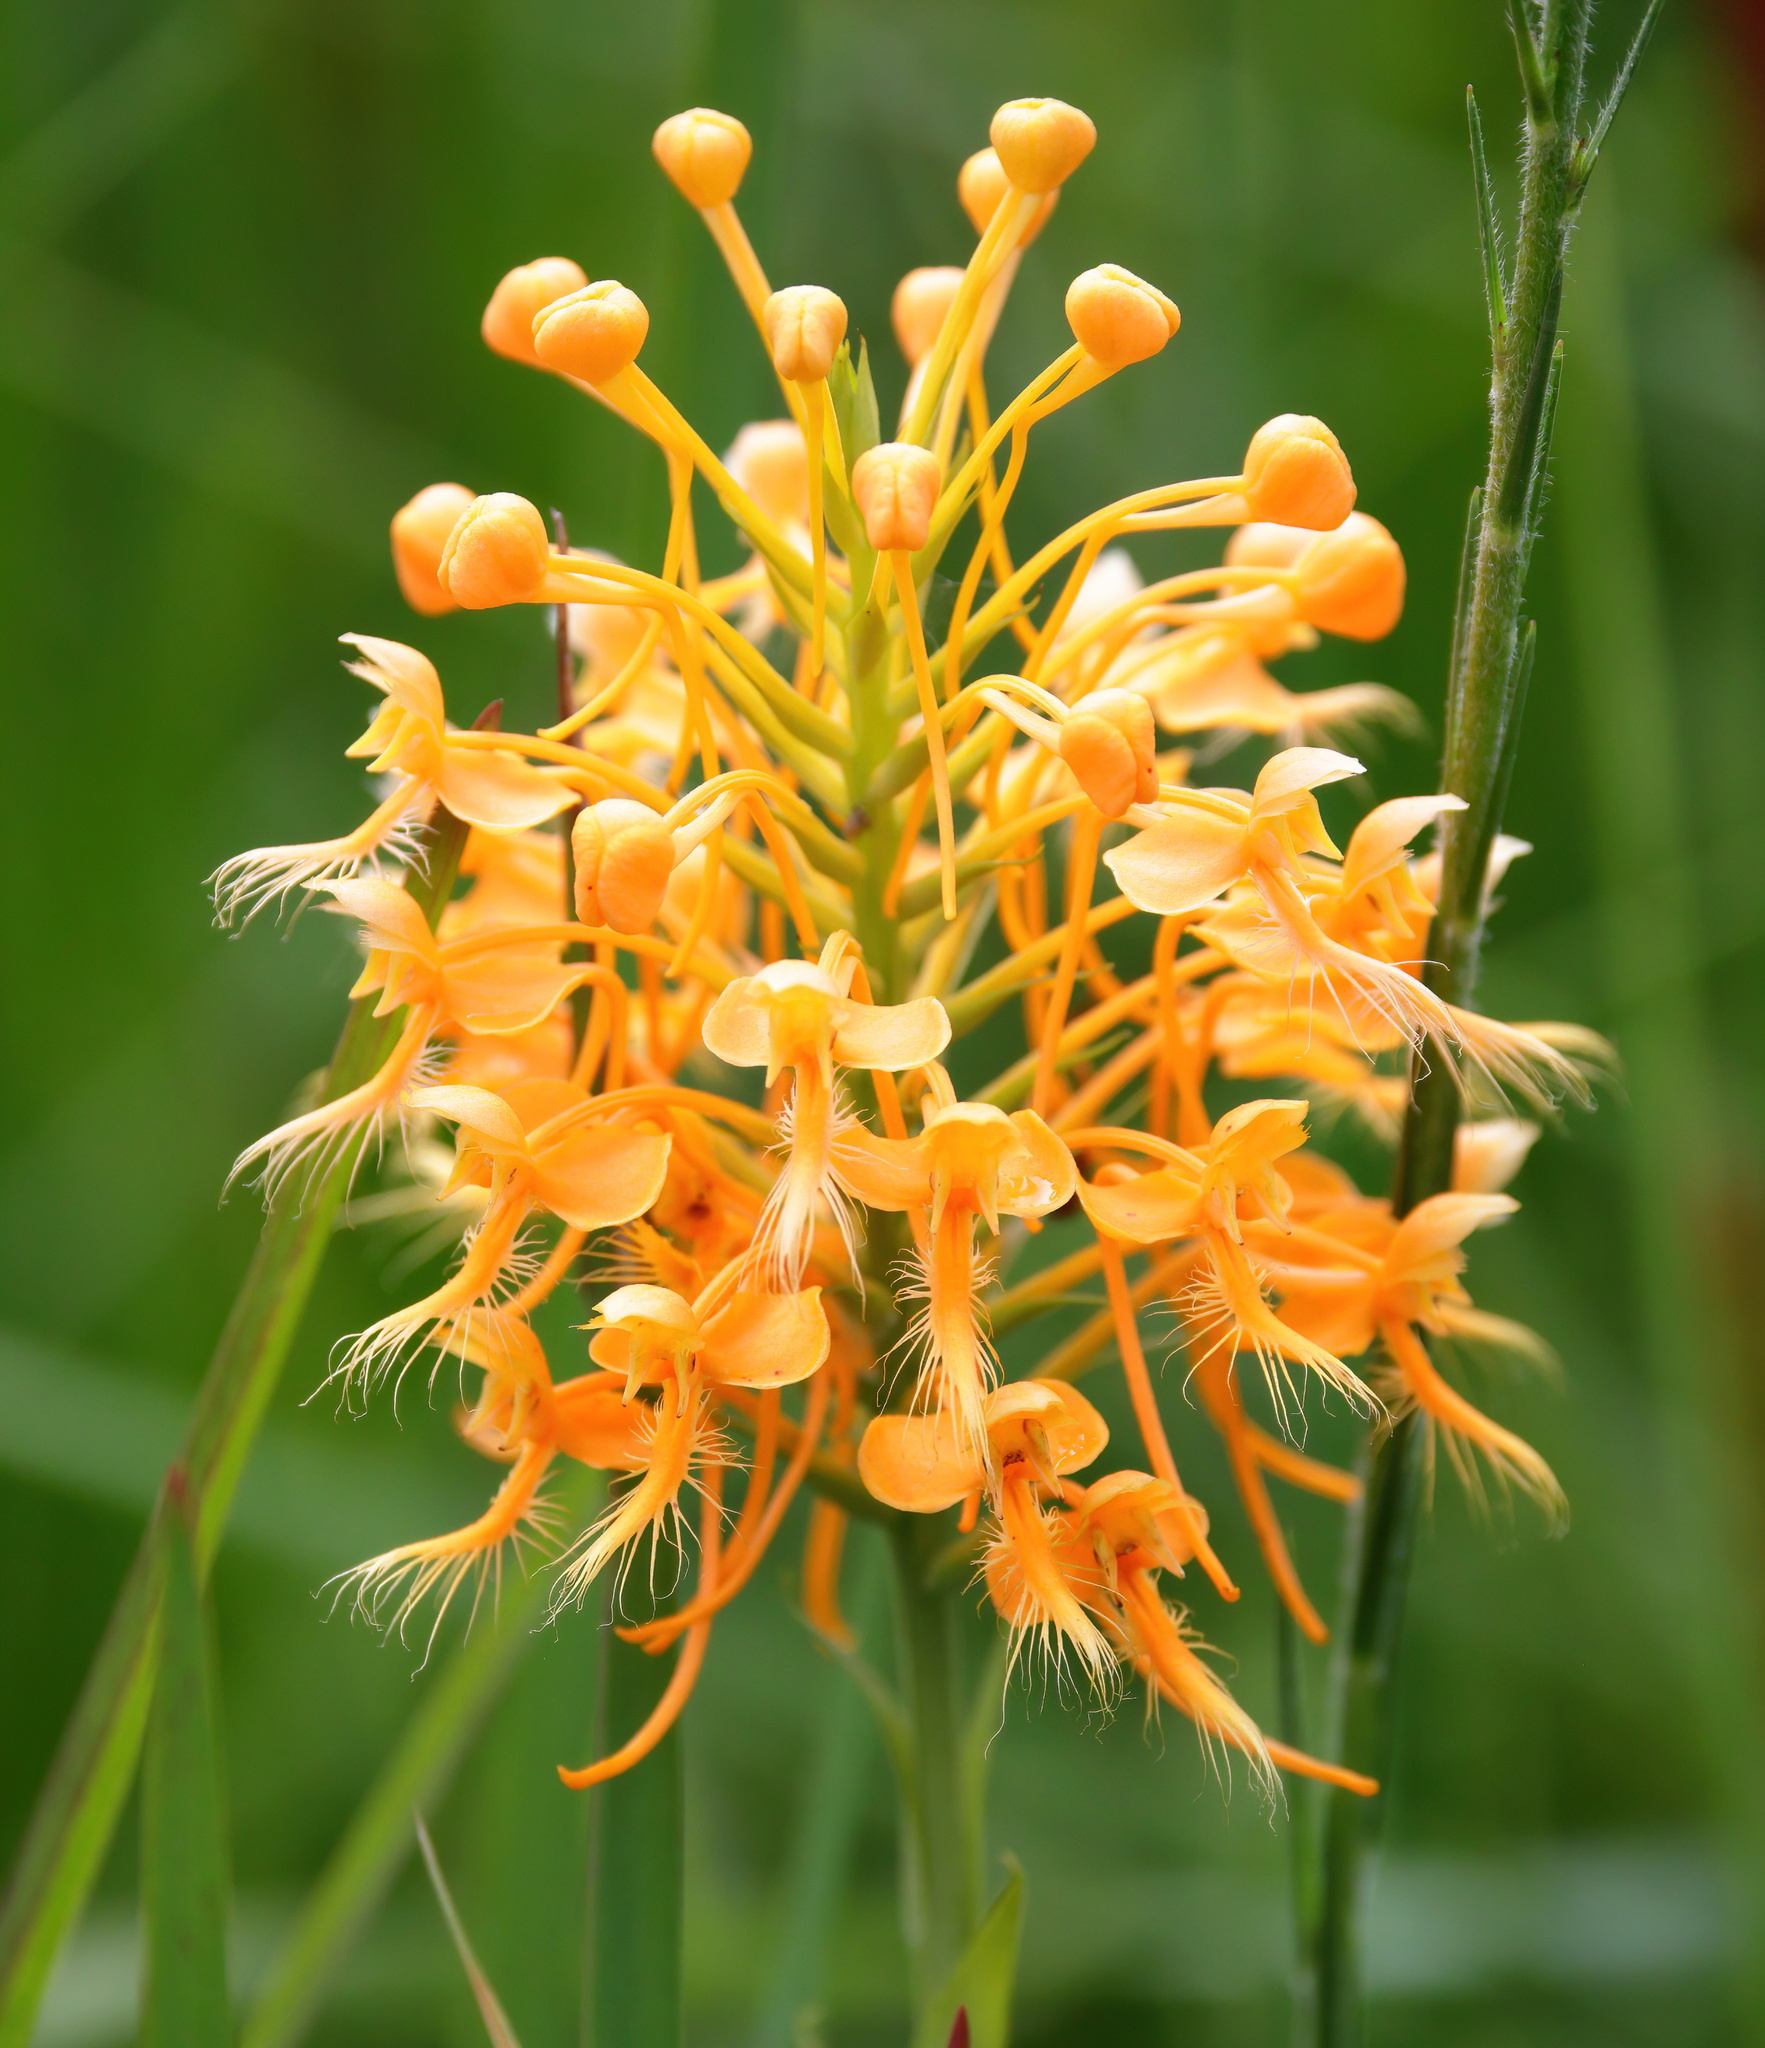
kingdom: Plantae
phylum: Tracheophyta
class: Liliopsida
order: Asparagales
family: Orchidaceae
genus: Platanthera
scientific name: Platanthera ciliaris
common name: Yellow fringed orchid
